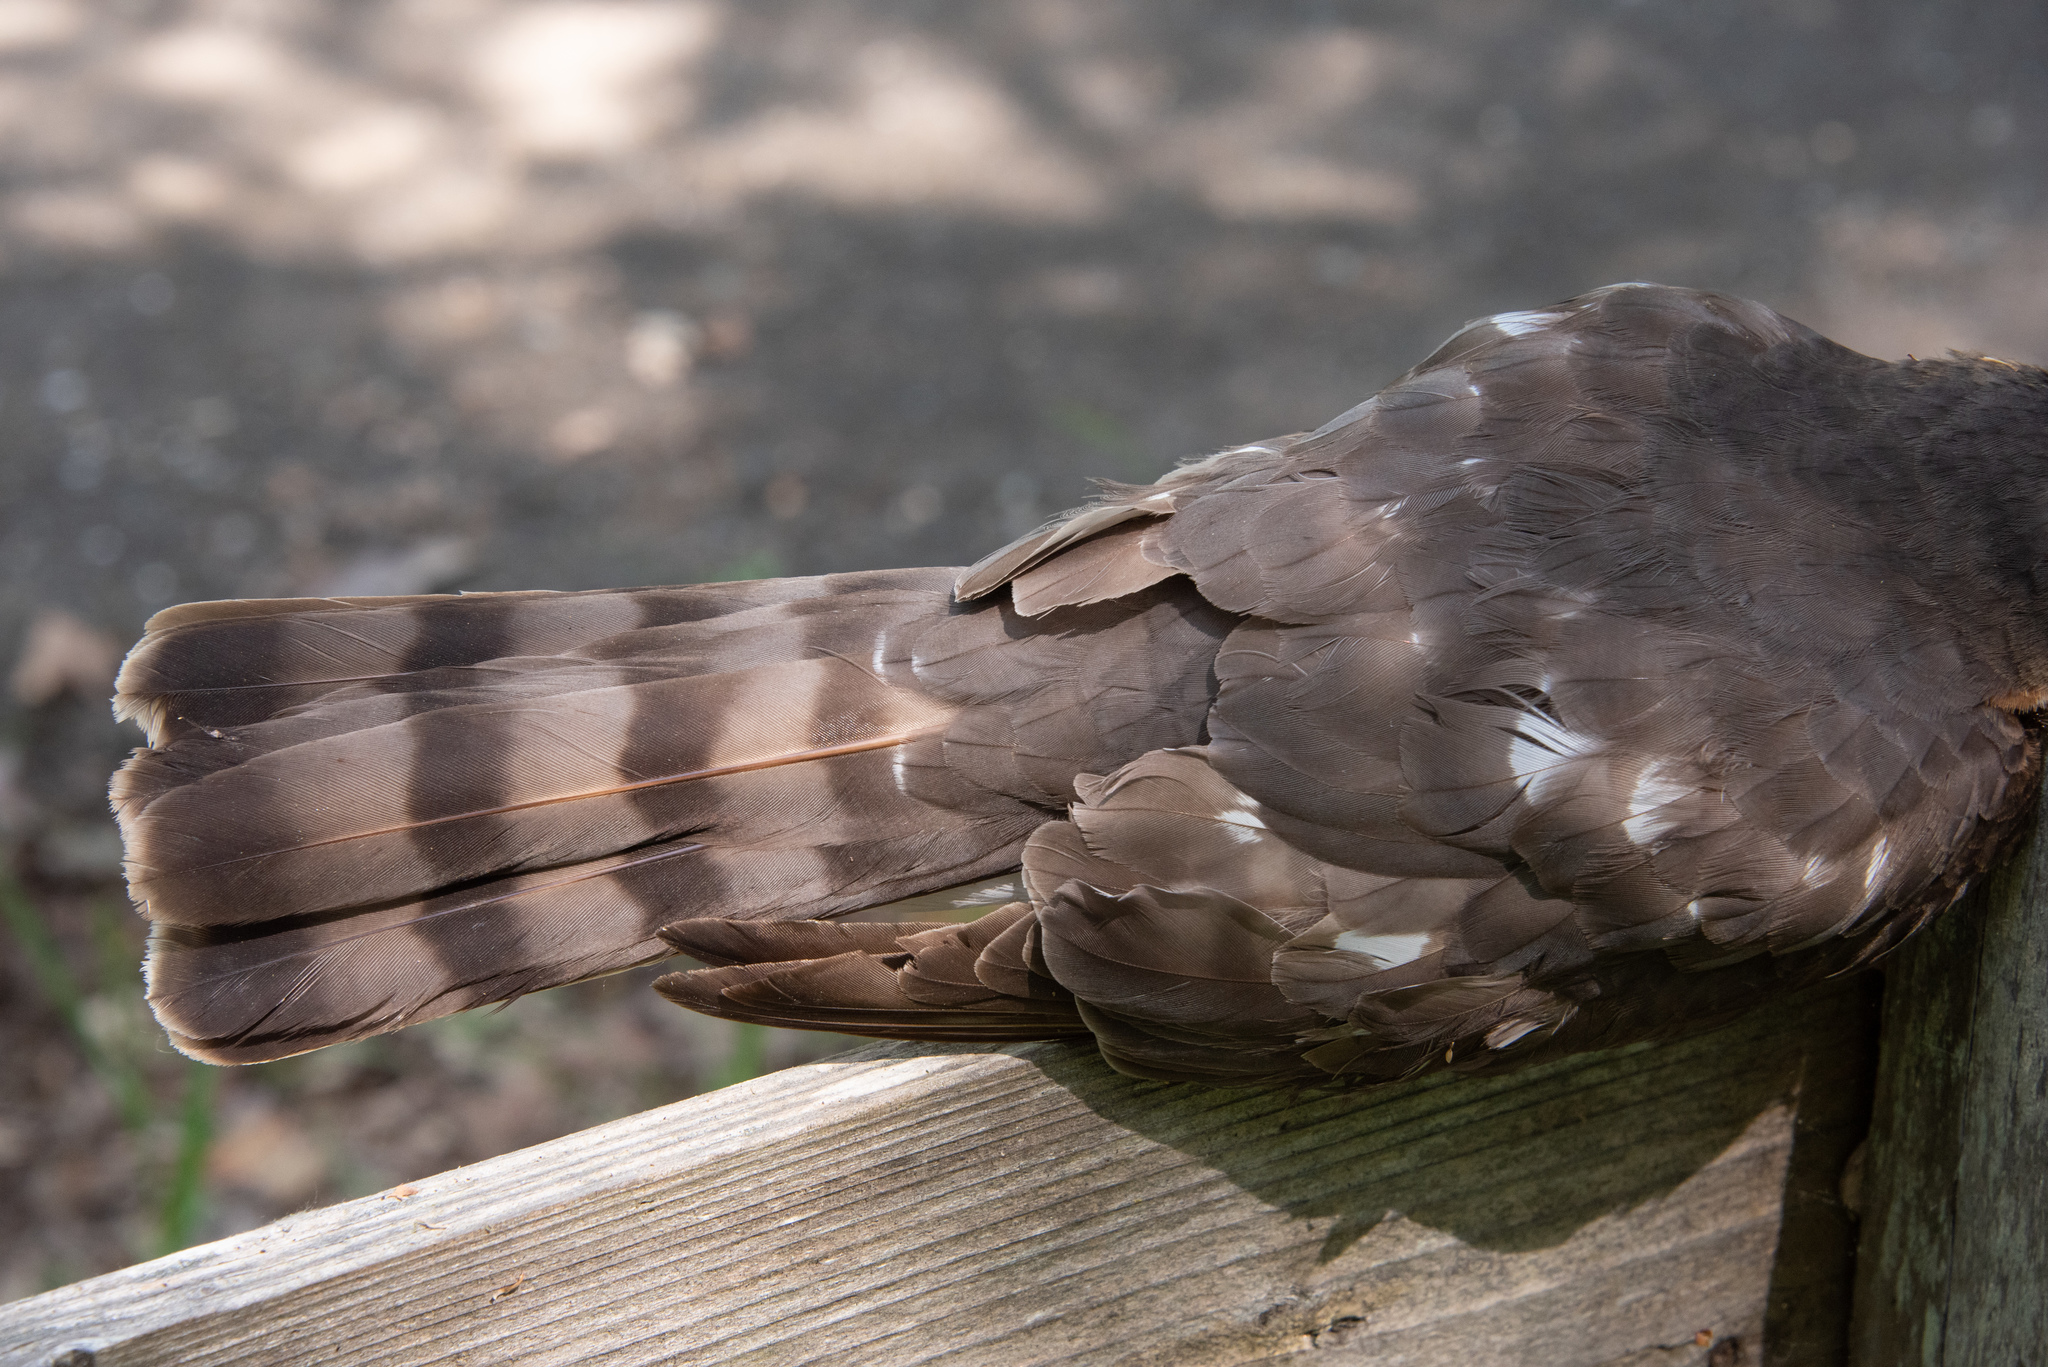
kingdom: Animalia
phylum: Chordata
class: Aves
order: Accipitriformes
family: Accipitridae
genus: Accipiter
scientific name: Accipiter striatus
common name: Sharp-shinned hawk
